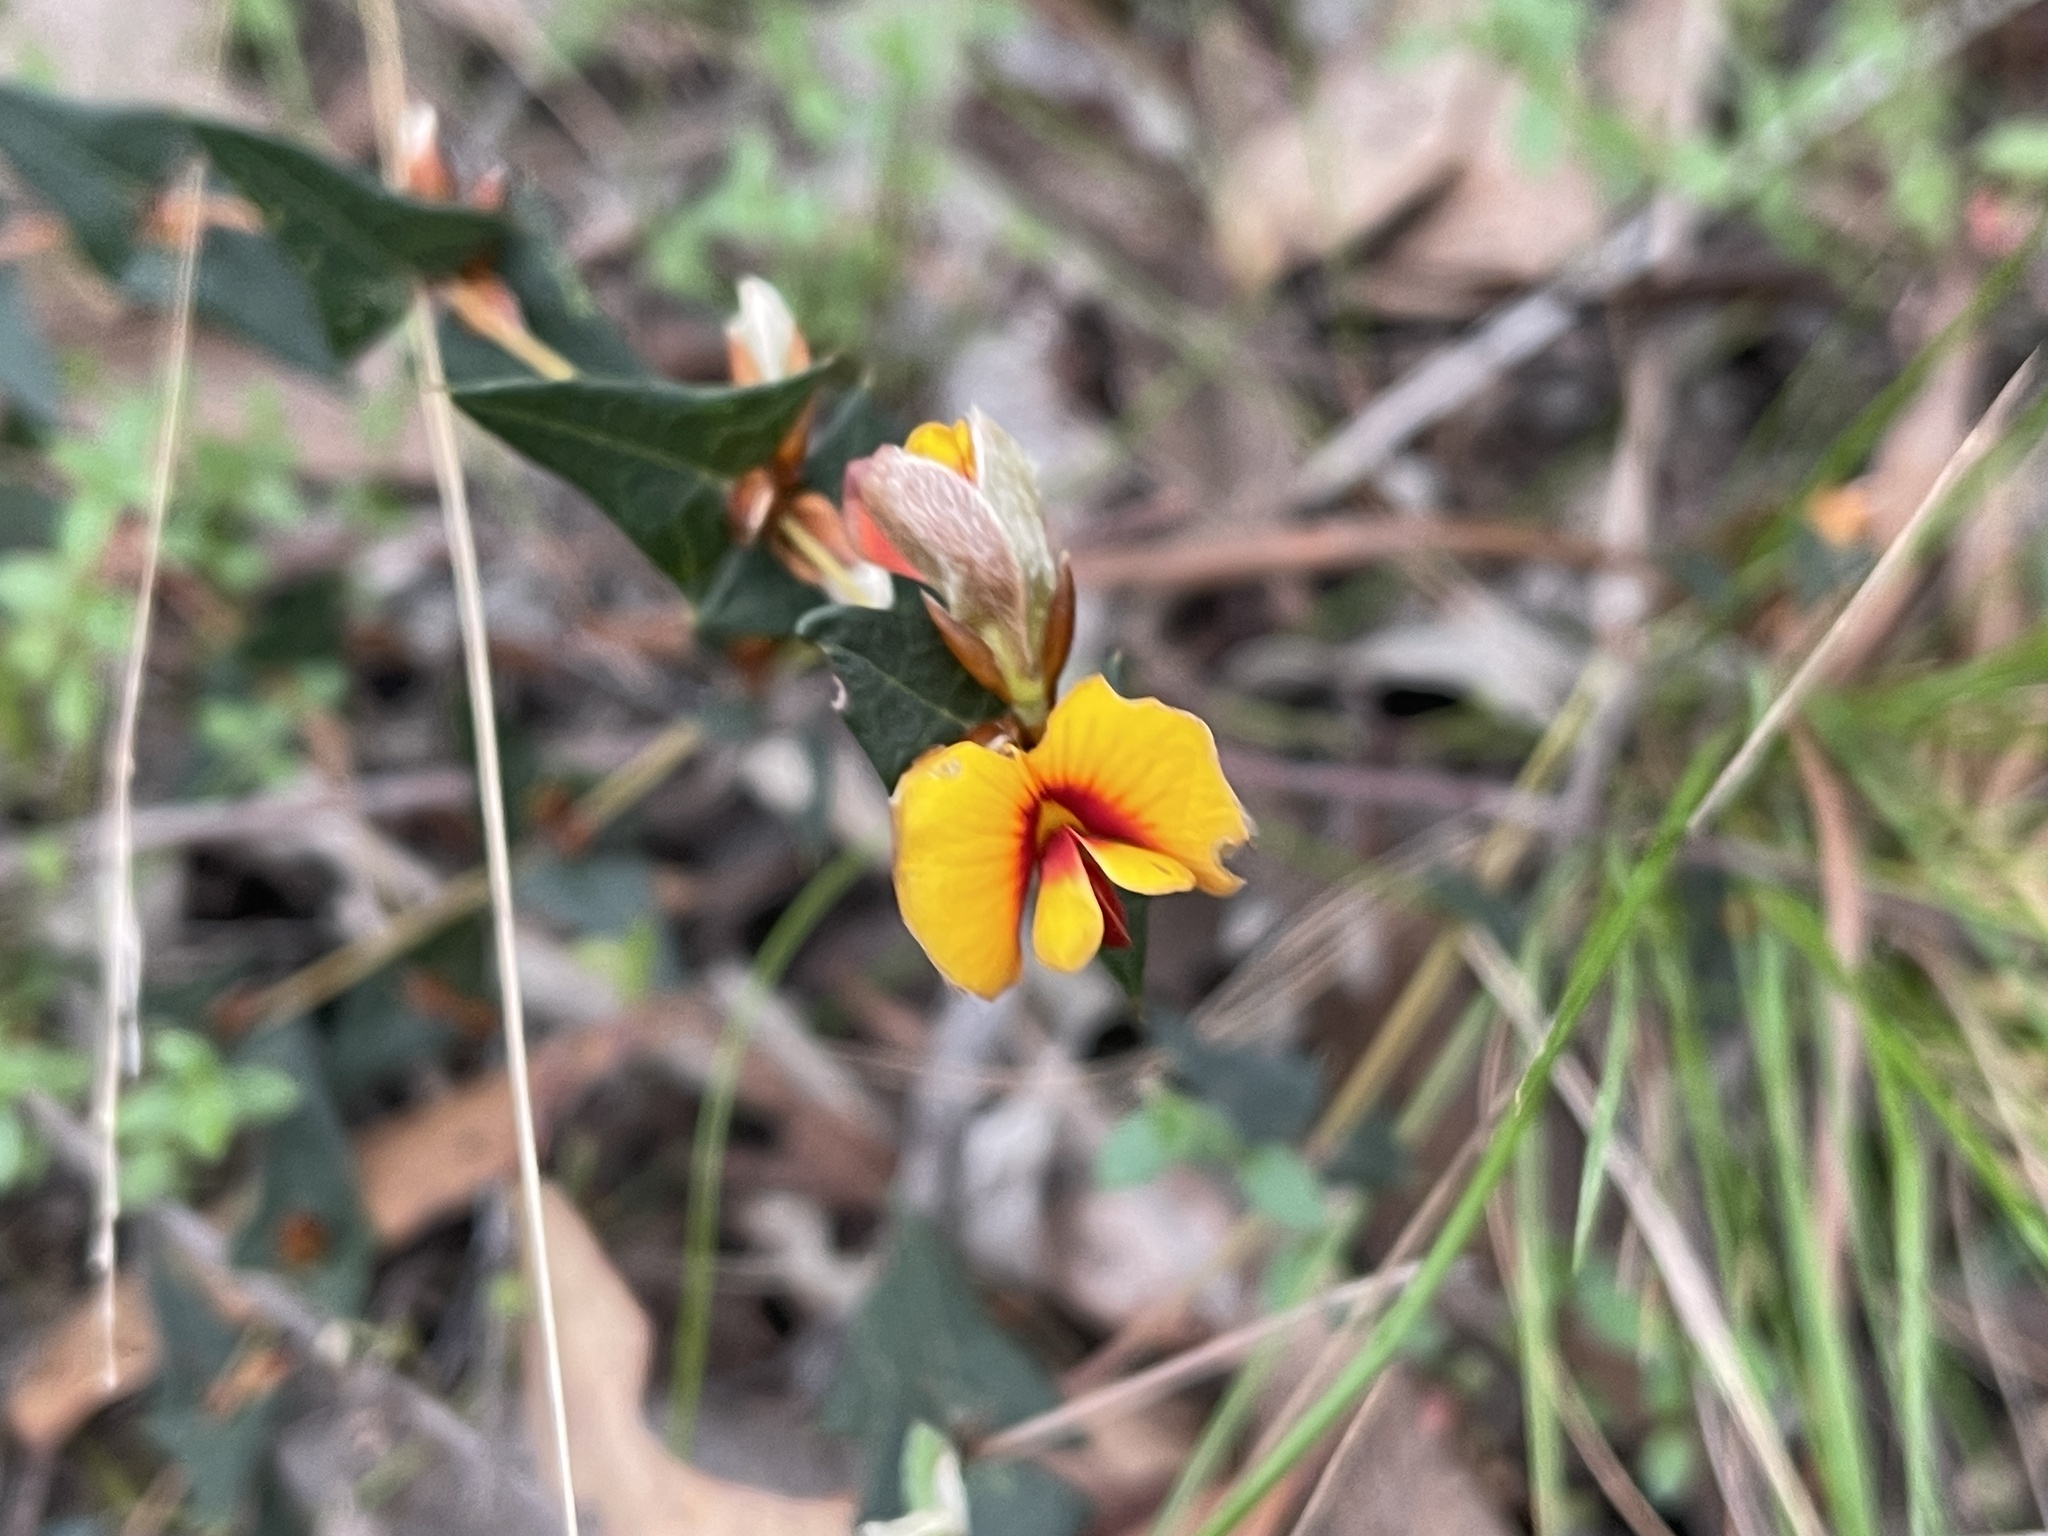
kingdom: Plantae
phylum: Tracheophyta
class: Magnoliopsida
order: Fabales
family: Fabaceae
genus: Platylobium
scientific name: Platylobium obtusangulum
